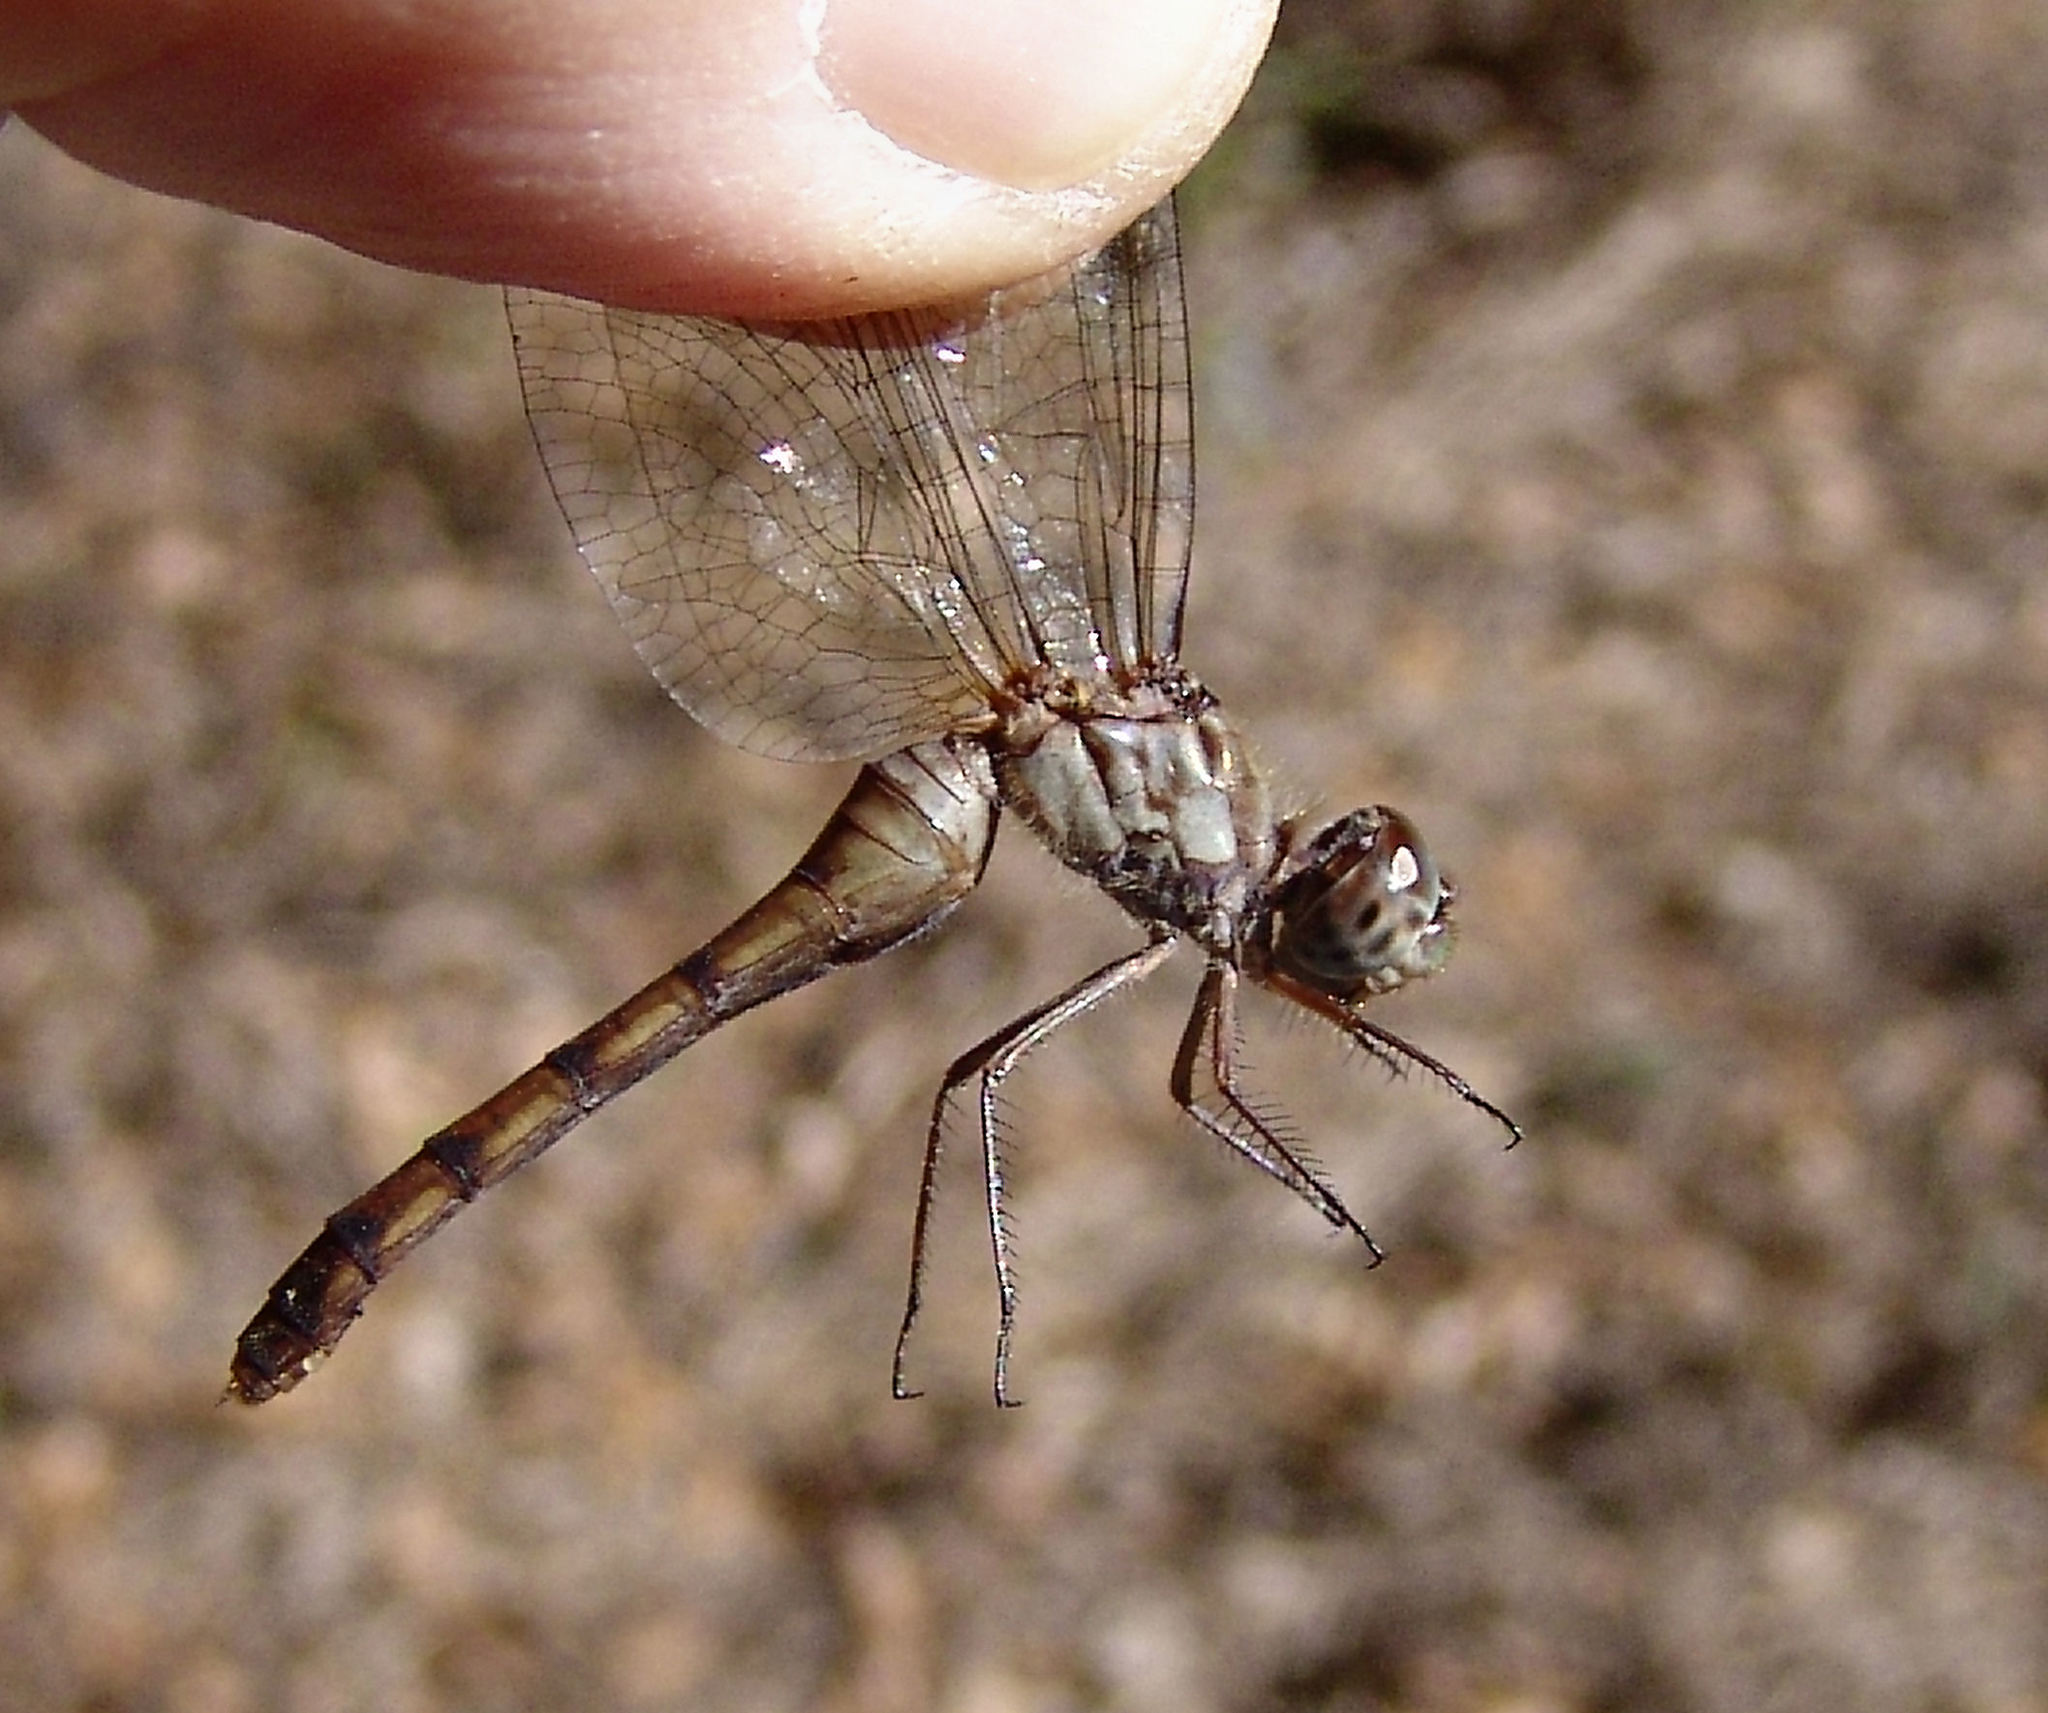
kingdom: Animalia
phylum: Arthropoda
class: Insecta
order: Odonata
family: Libellulidae
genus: Sympetrum
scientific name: Sympetrum ambiguum
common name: Blue-faced meadowhawk
